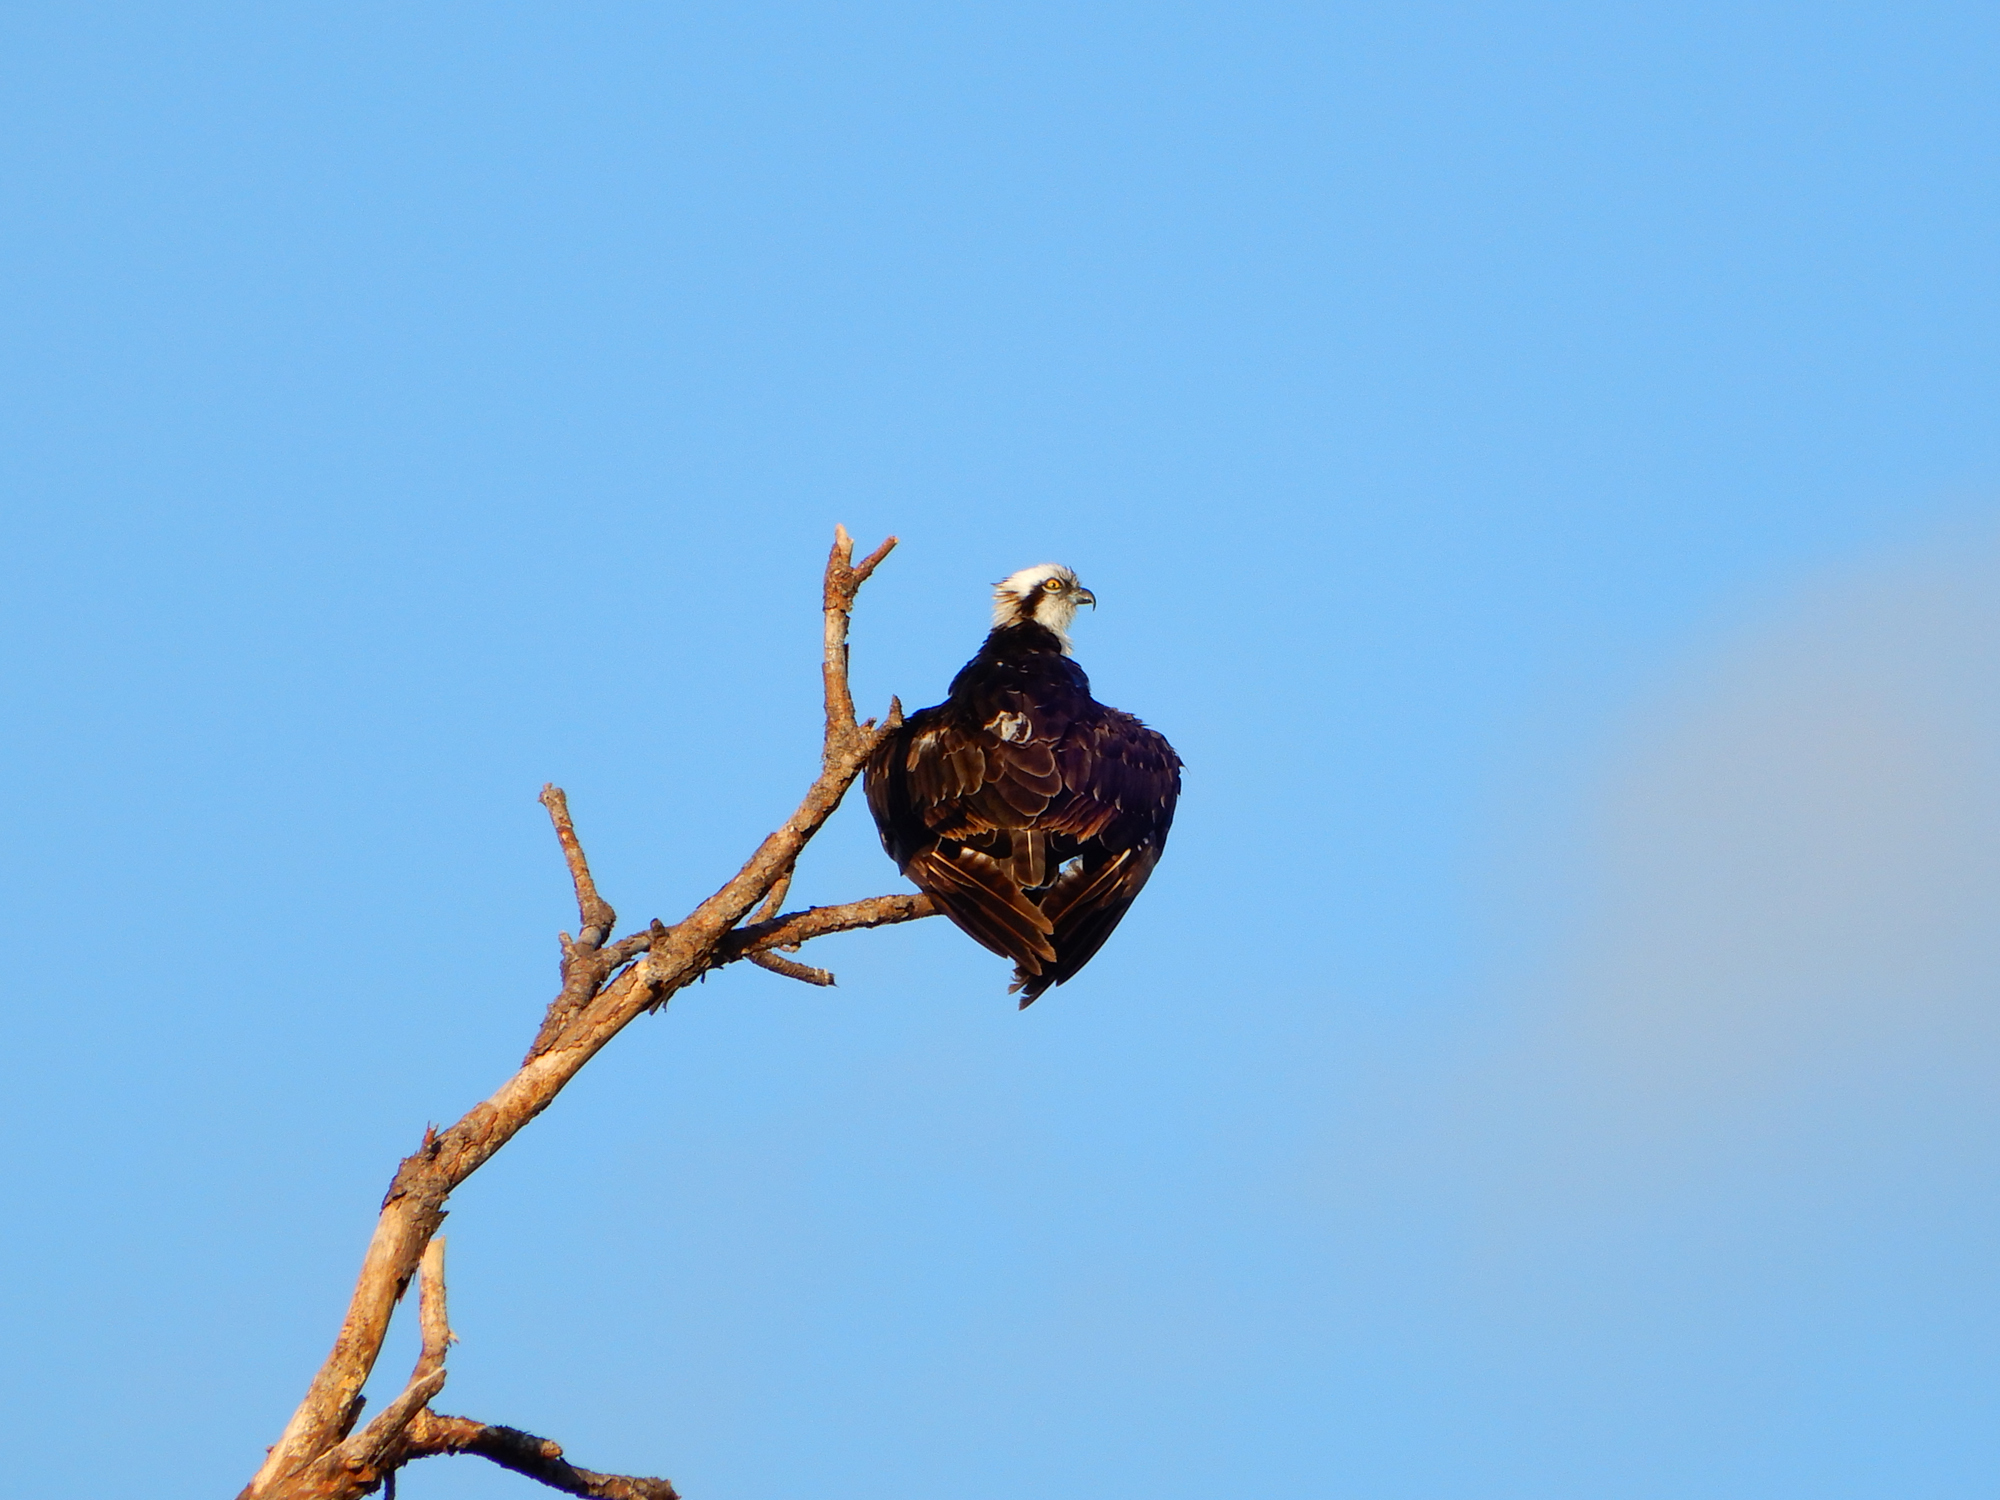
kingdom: Animalia
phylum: Chordata
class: Aves
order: Accipitriformes
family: Pandionidae
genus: Pandion
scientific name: Pandion haliaetus
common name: Osprey
